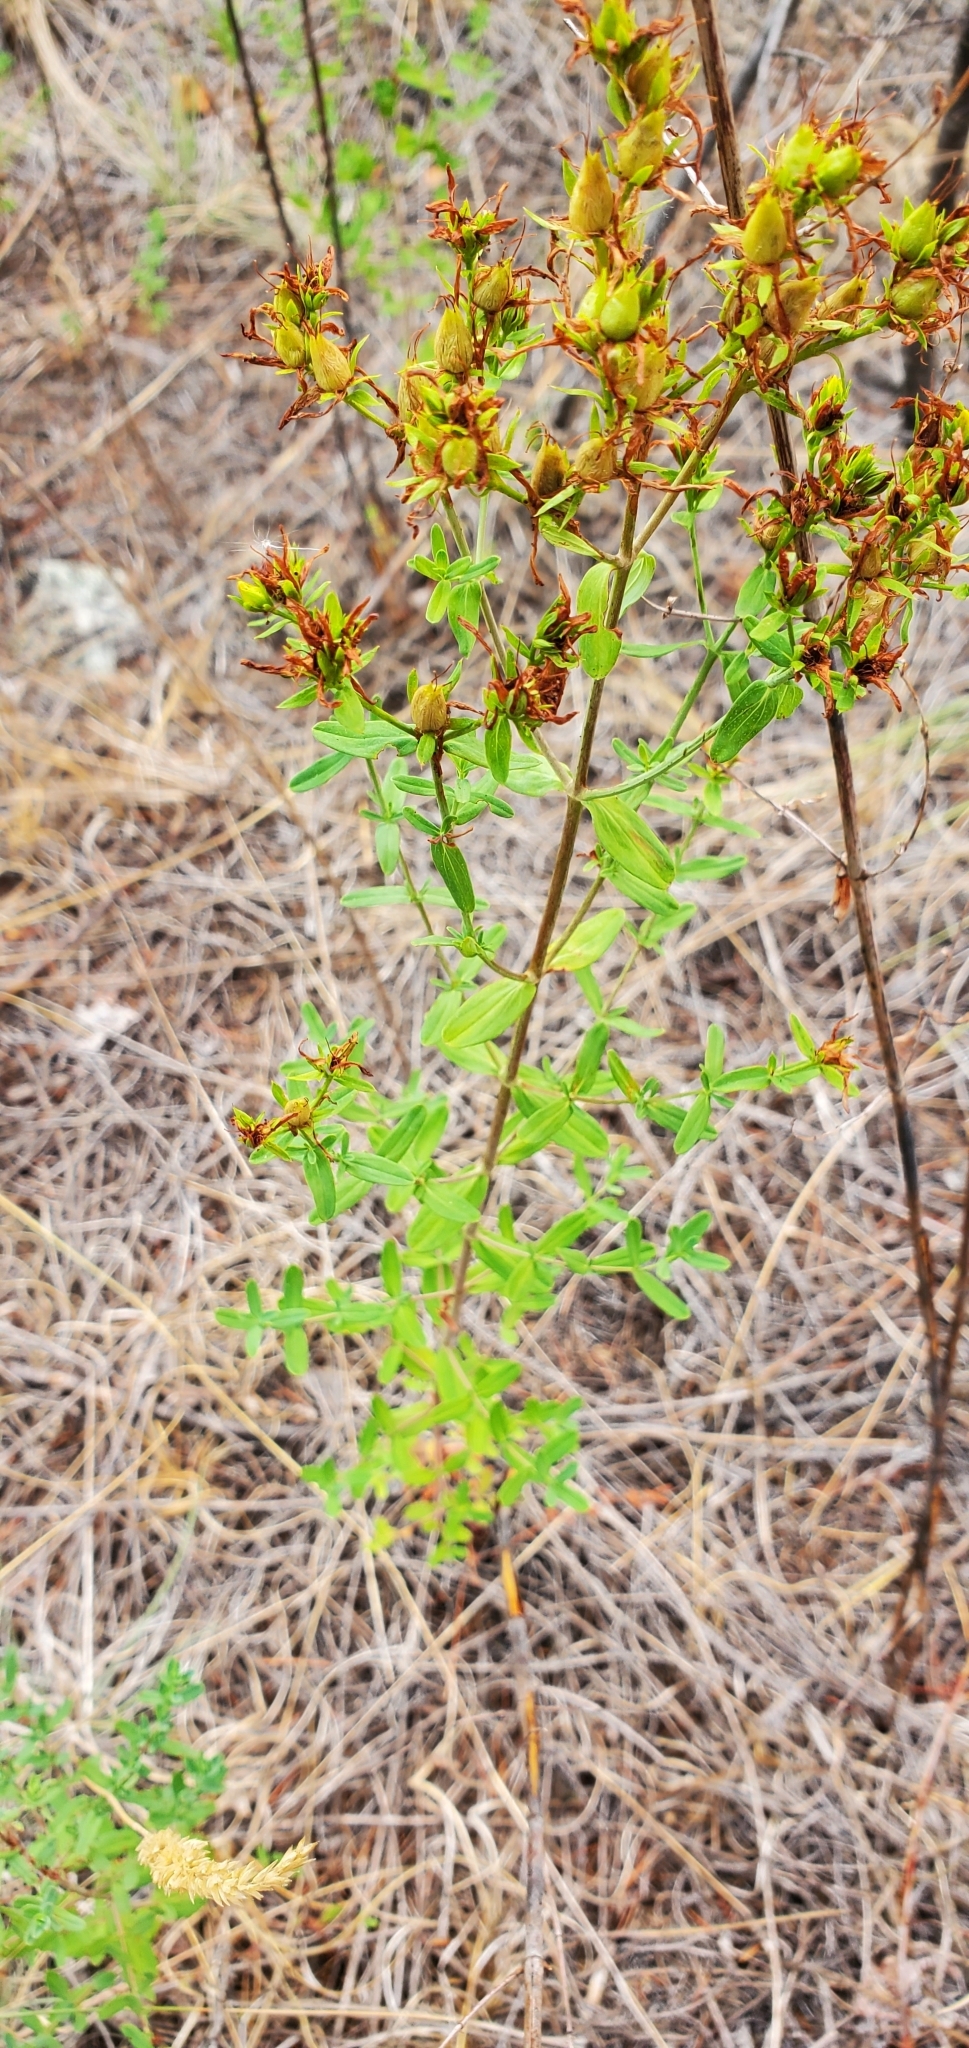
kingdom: Plantae
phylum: Tracheophyta
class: Magnoliopsida
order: Malpighiales
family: Hypericaceae
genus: Hypericum
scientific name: Hypericum perforatum
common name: Common st. johnswort
